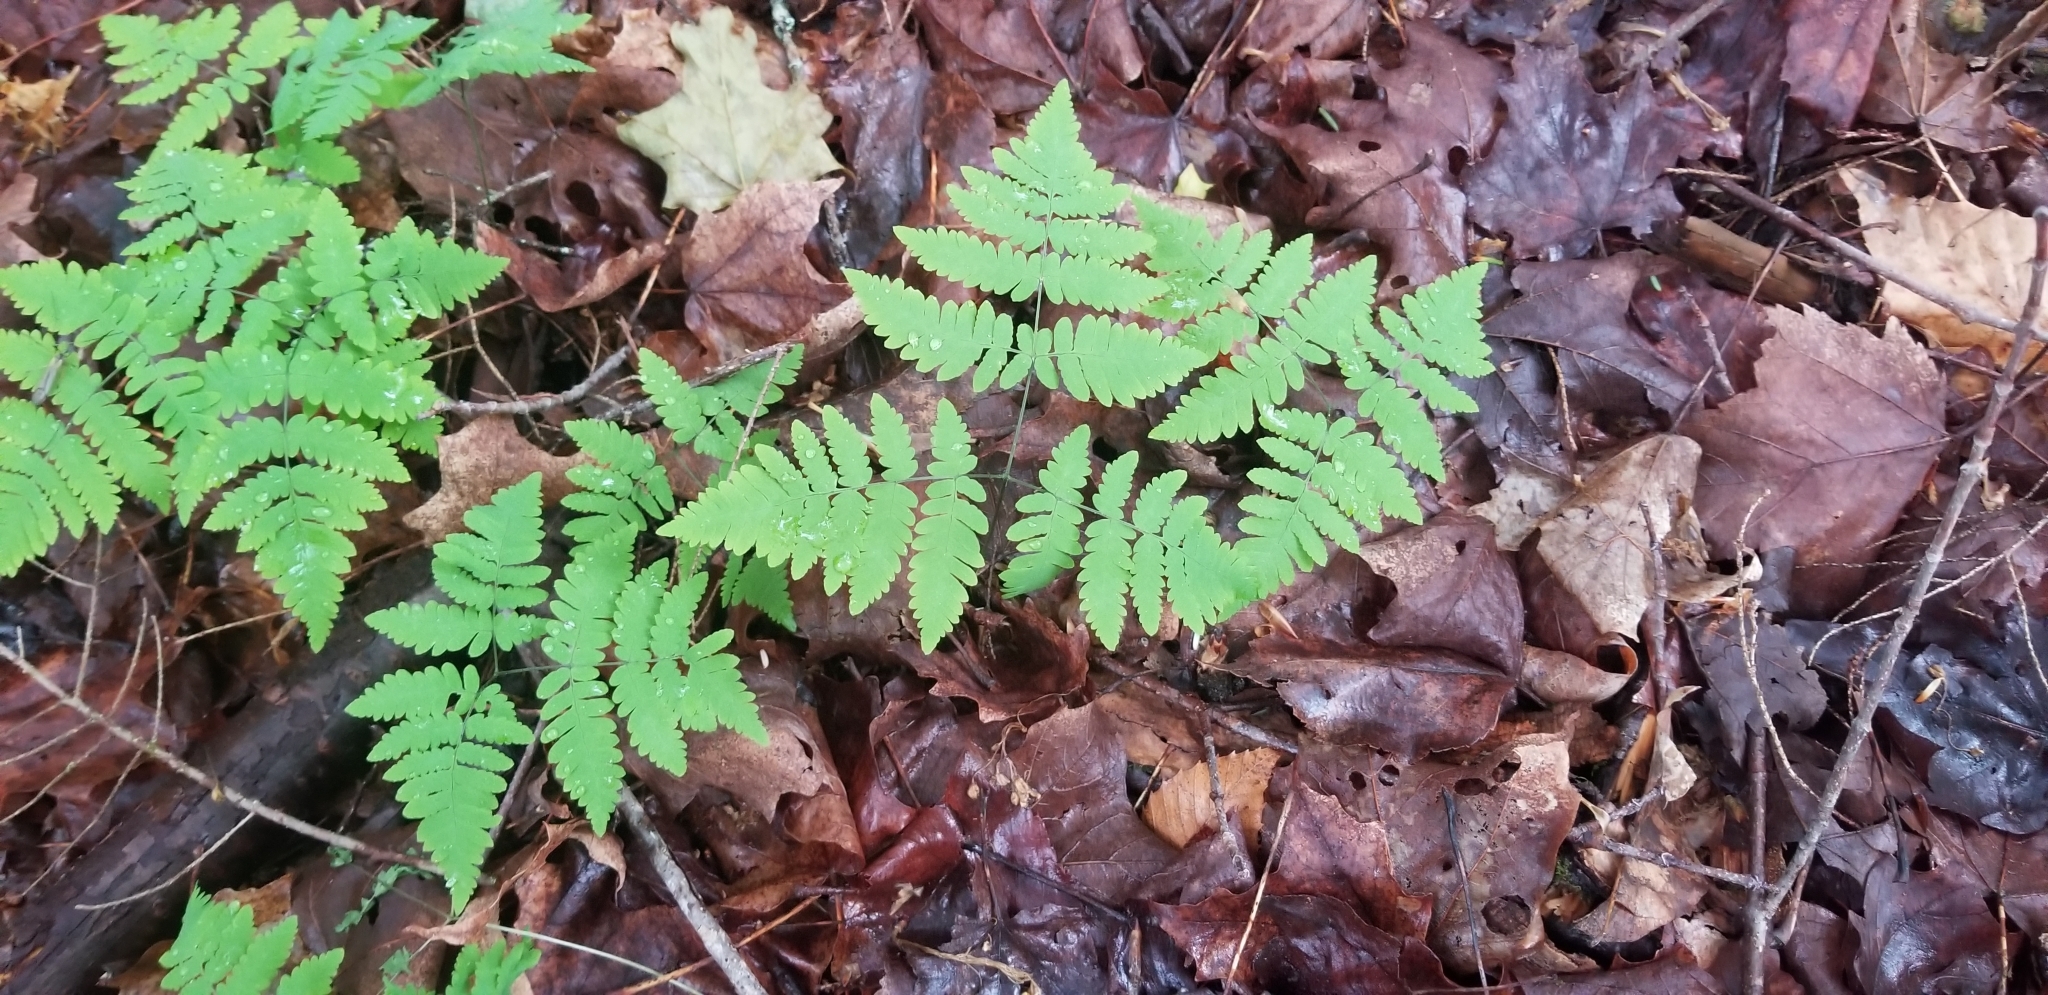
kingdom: Plantae
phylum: Tracheophyta
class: Polypodiopsida
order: Polypodiales
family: Cystopteridaceae
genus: Gymnocarpium
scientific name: Gymnocarpium dryopteris
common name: Oak fern
